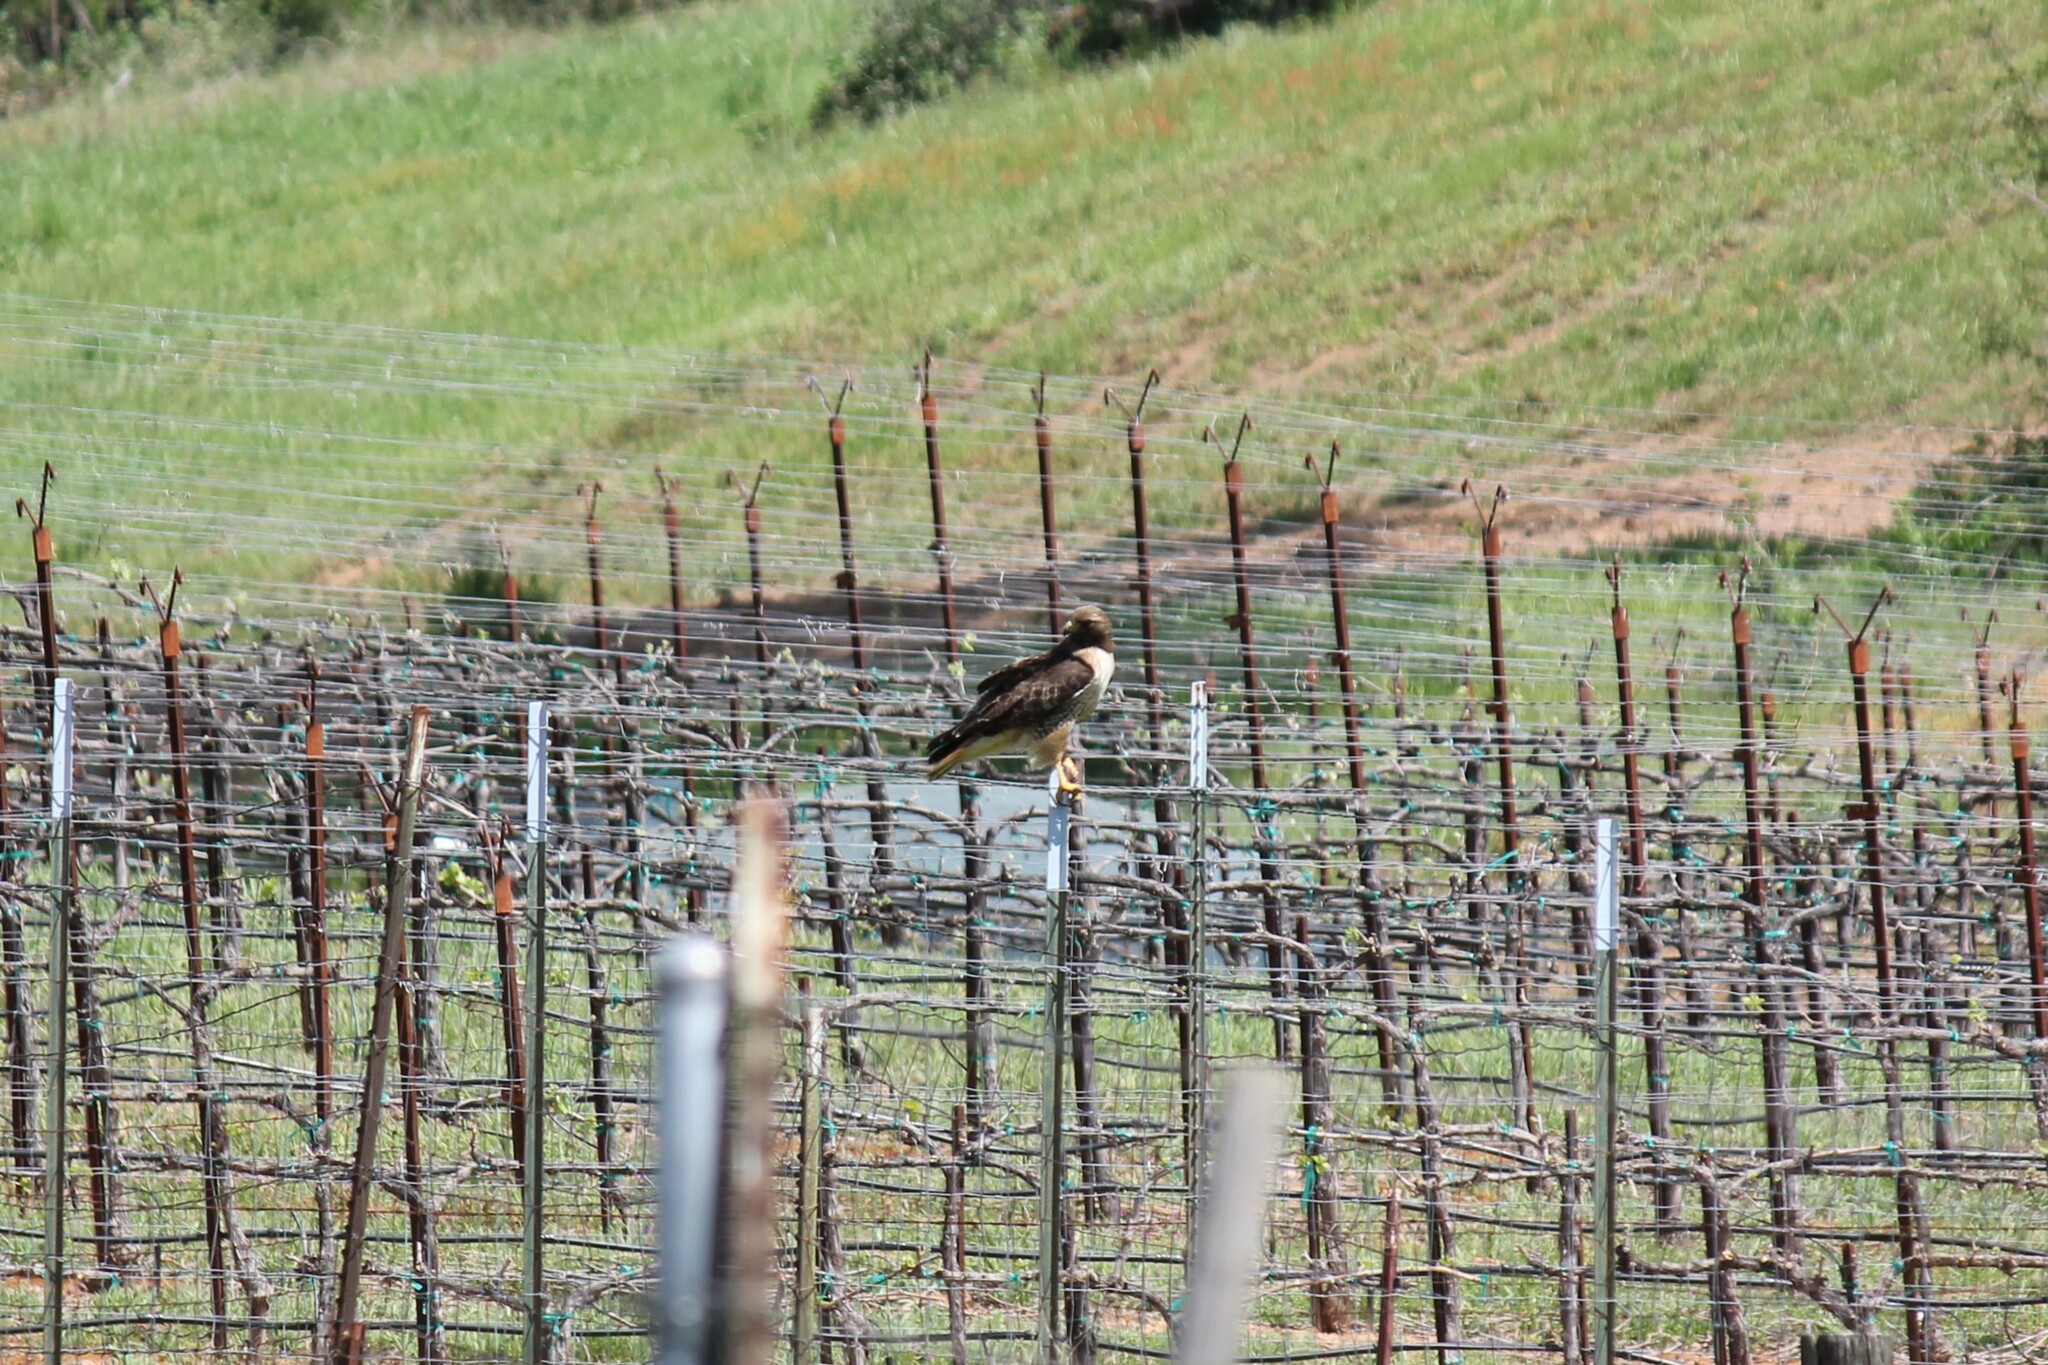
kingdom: Animalia
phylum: Chordata
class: Aves
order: Accipitriformes
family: Accipitridae
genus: Buteo
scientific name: Buteo jamaicensis
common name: Red-tailed hawk
